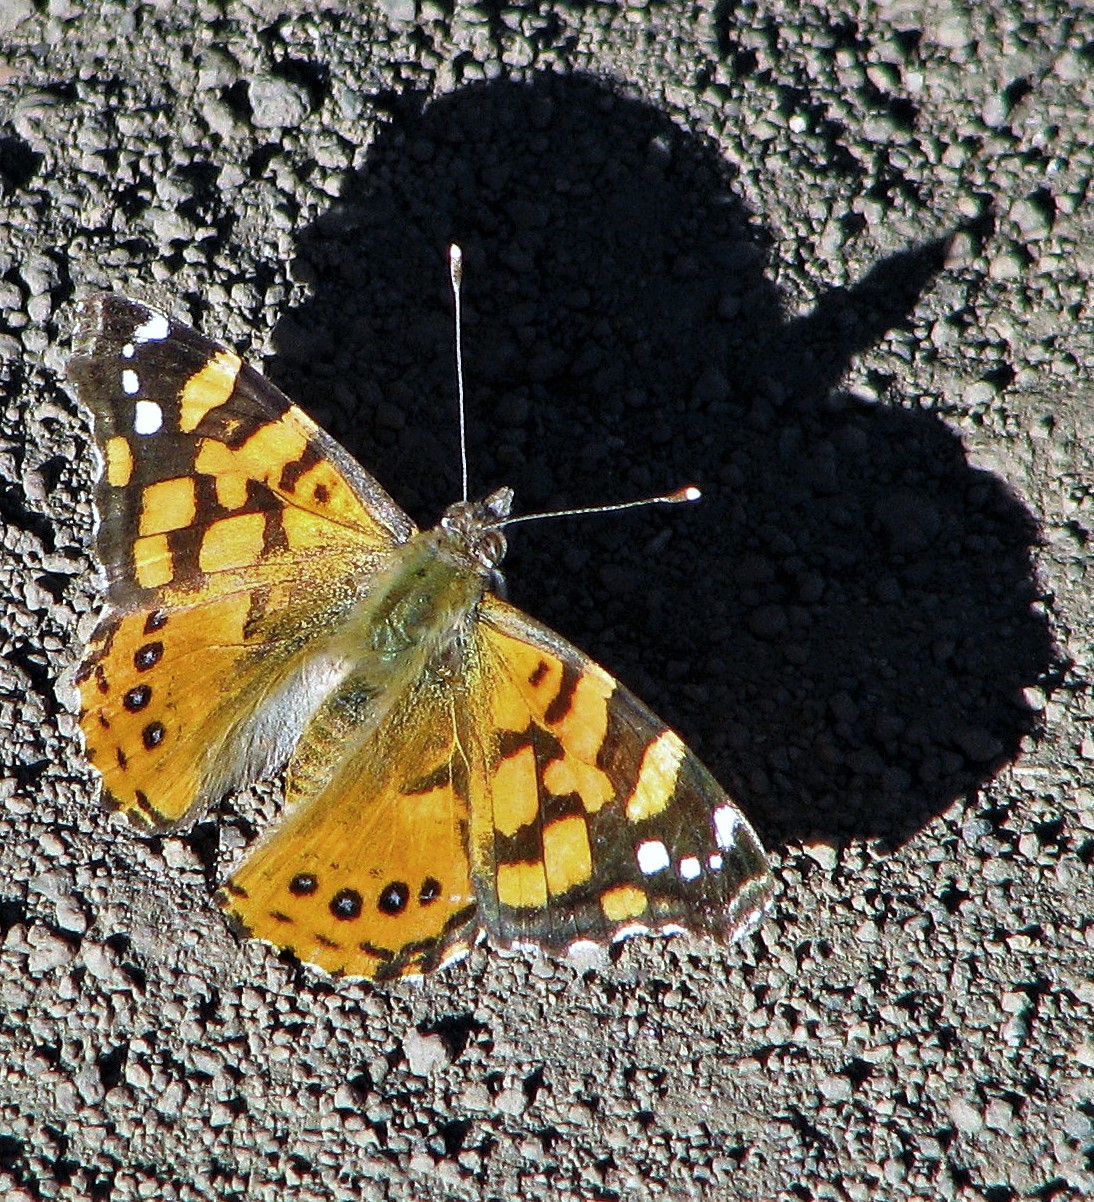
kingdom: Animalia
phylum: Arthropoda
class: Insecta
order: Lepidoptera
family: Nymphalidae
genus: Vanessa
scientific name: Vanessa carye
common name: Subtropical lady
